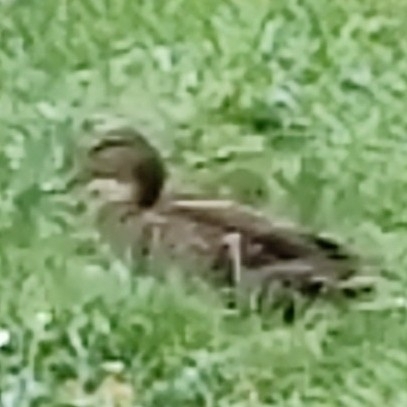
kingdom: Animalia
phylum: Chordata
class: Aves
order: Anseriformes
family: Anatidae
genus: Anas
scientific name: Anas platyrhynchos
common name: Mallard
